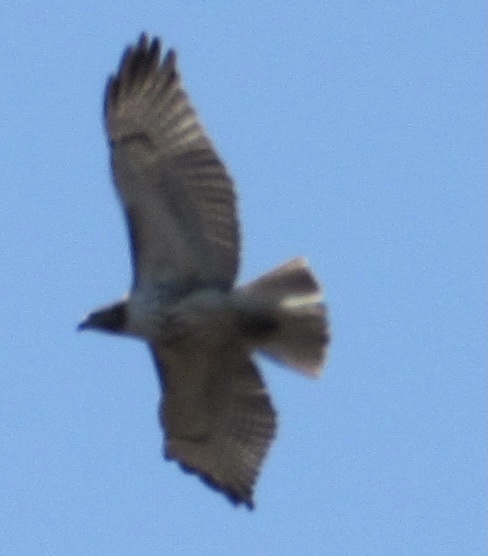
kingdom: Animalia
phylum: Chordata
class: Aves
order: Accipitriformes
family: Accipitridae
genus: Buteo
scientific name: Buteo jamaicensis
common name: Red-tailed hawk
